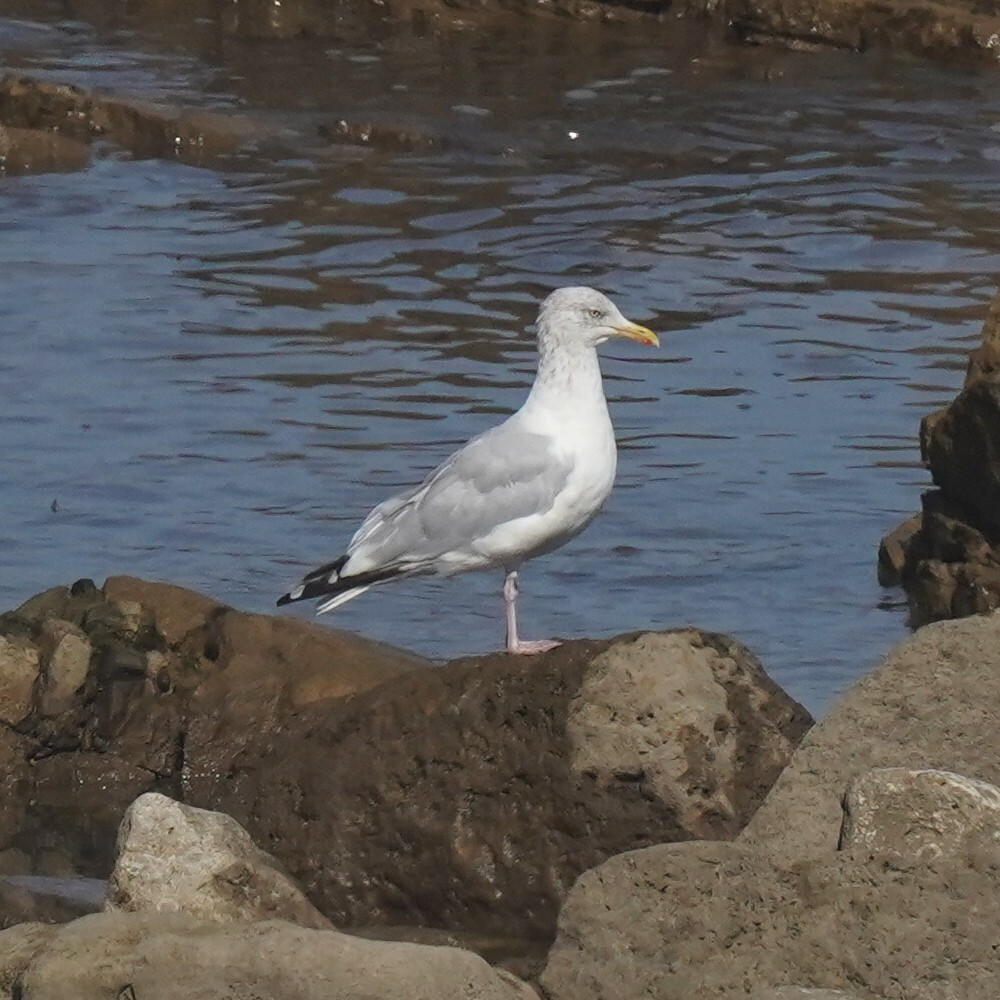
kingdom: Animalia
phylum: Chordata
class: Aves
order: Charadriiformes
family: Laridae
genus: Larus
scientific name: Larus argentatus
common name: Herring gull
